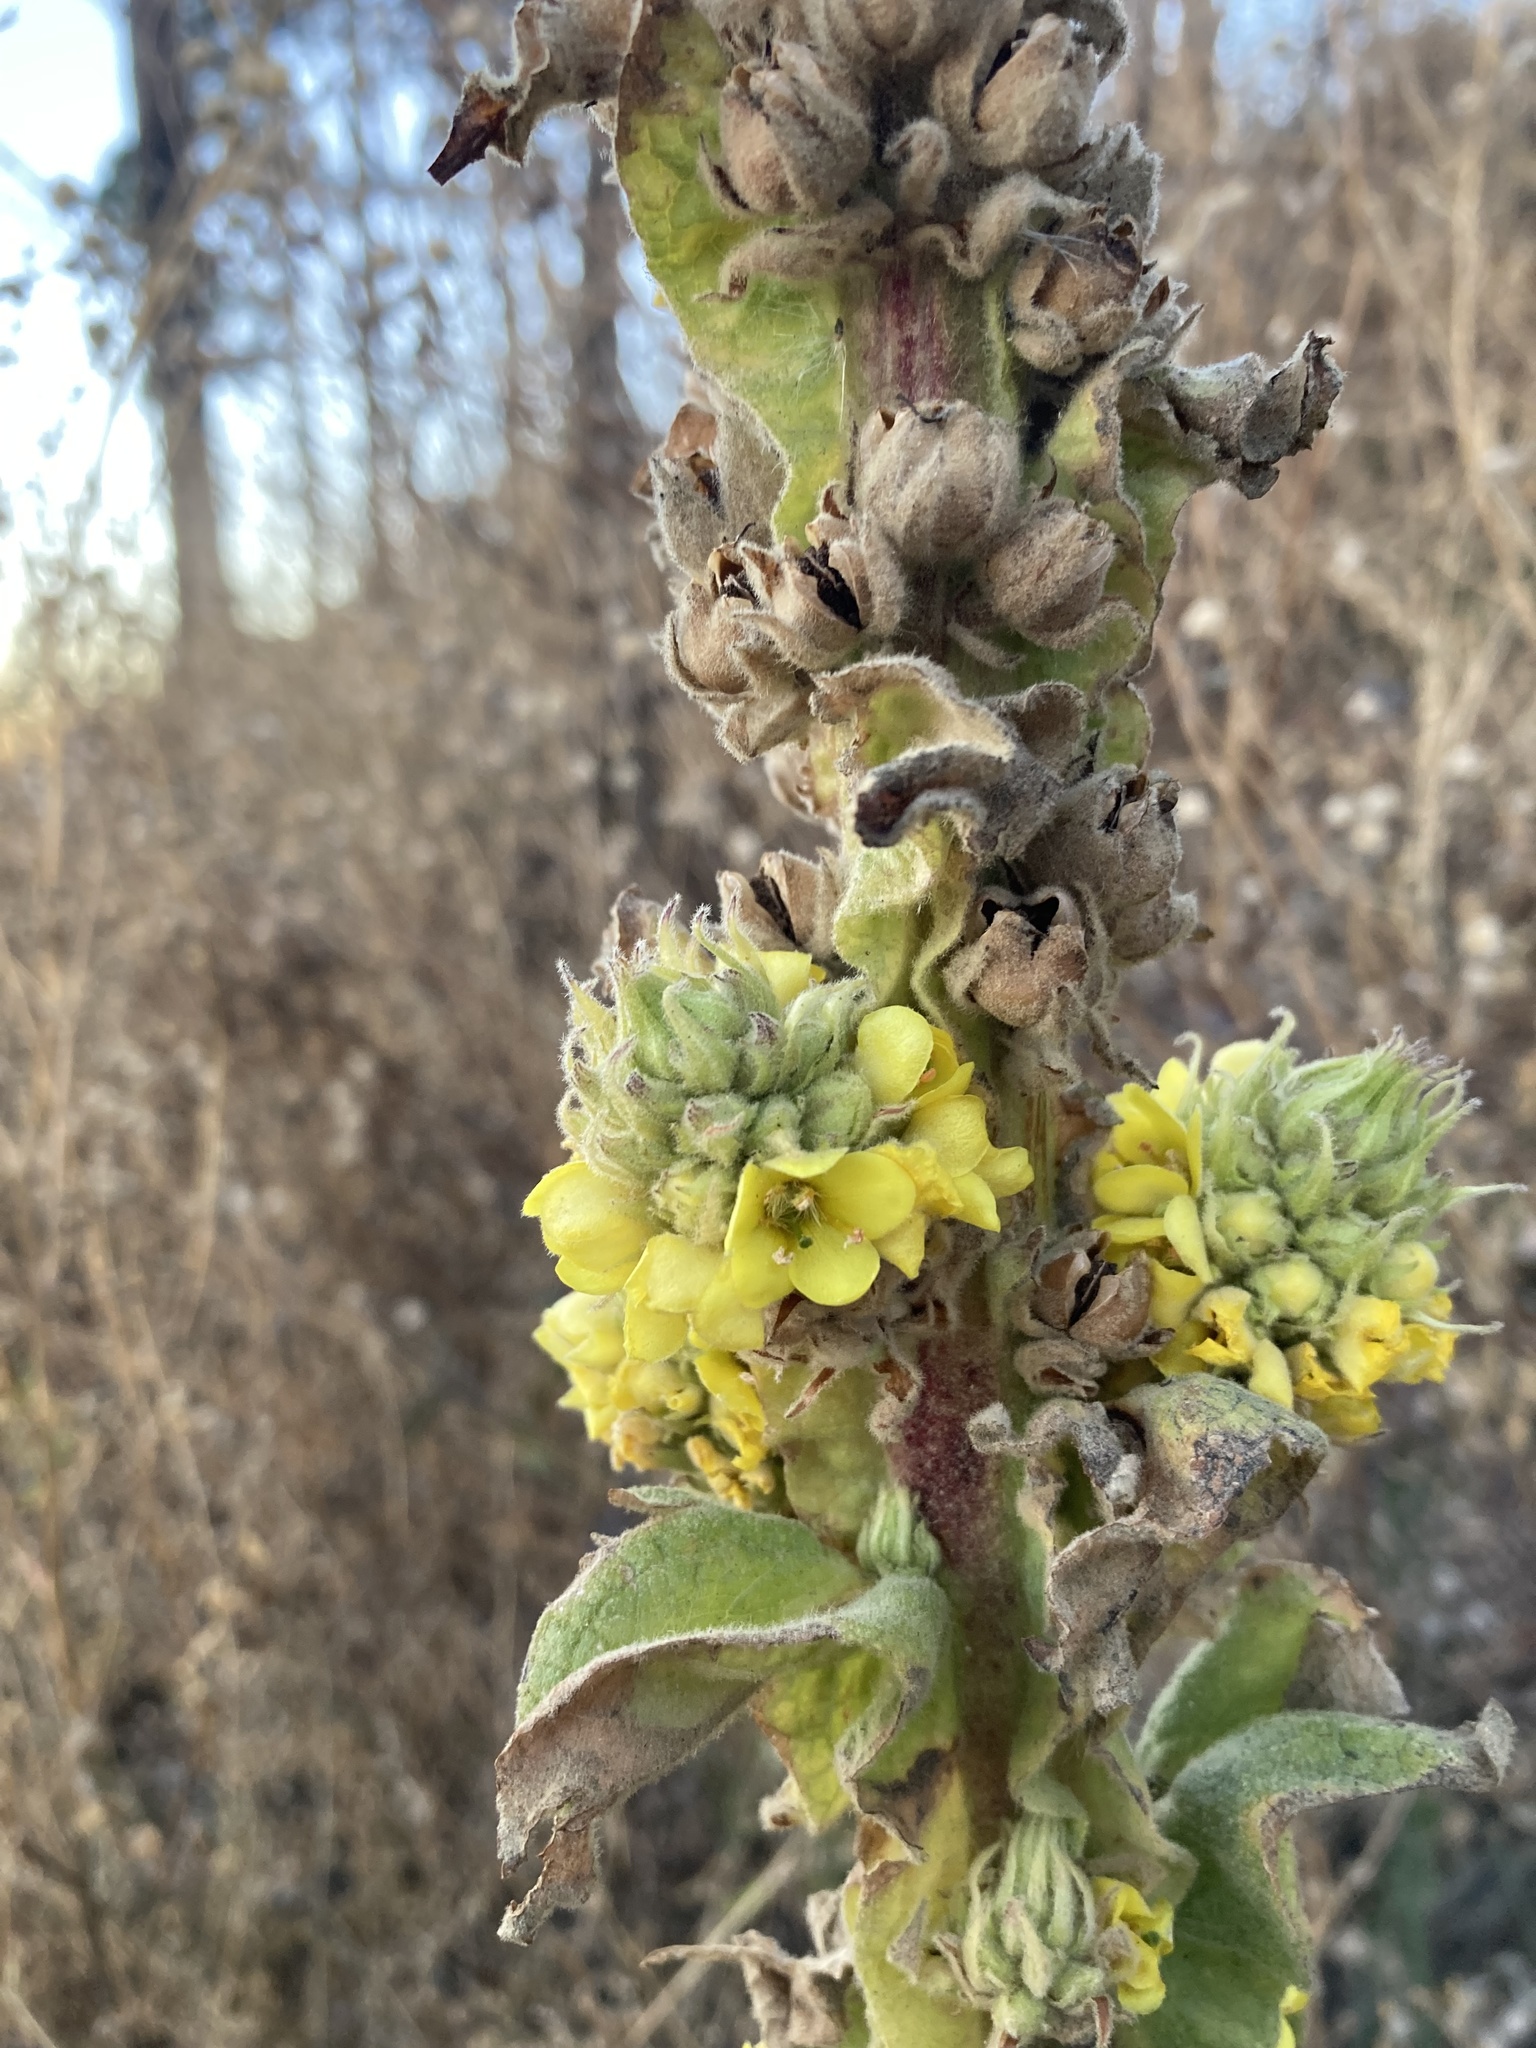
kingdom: Plantae
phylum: Tracheophyta
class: Magnoliopsida
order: Lamiales
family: Scrophulariaceae
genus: Verbascum
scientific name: Verbascum thapsus
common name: Common mullein
